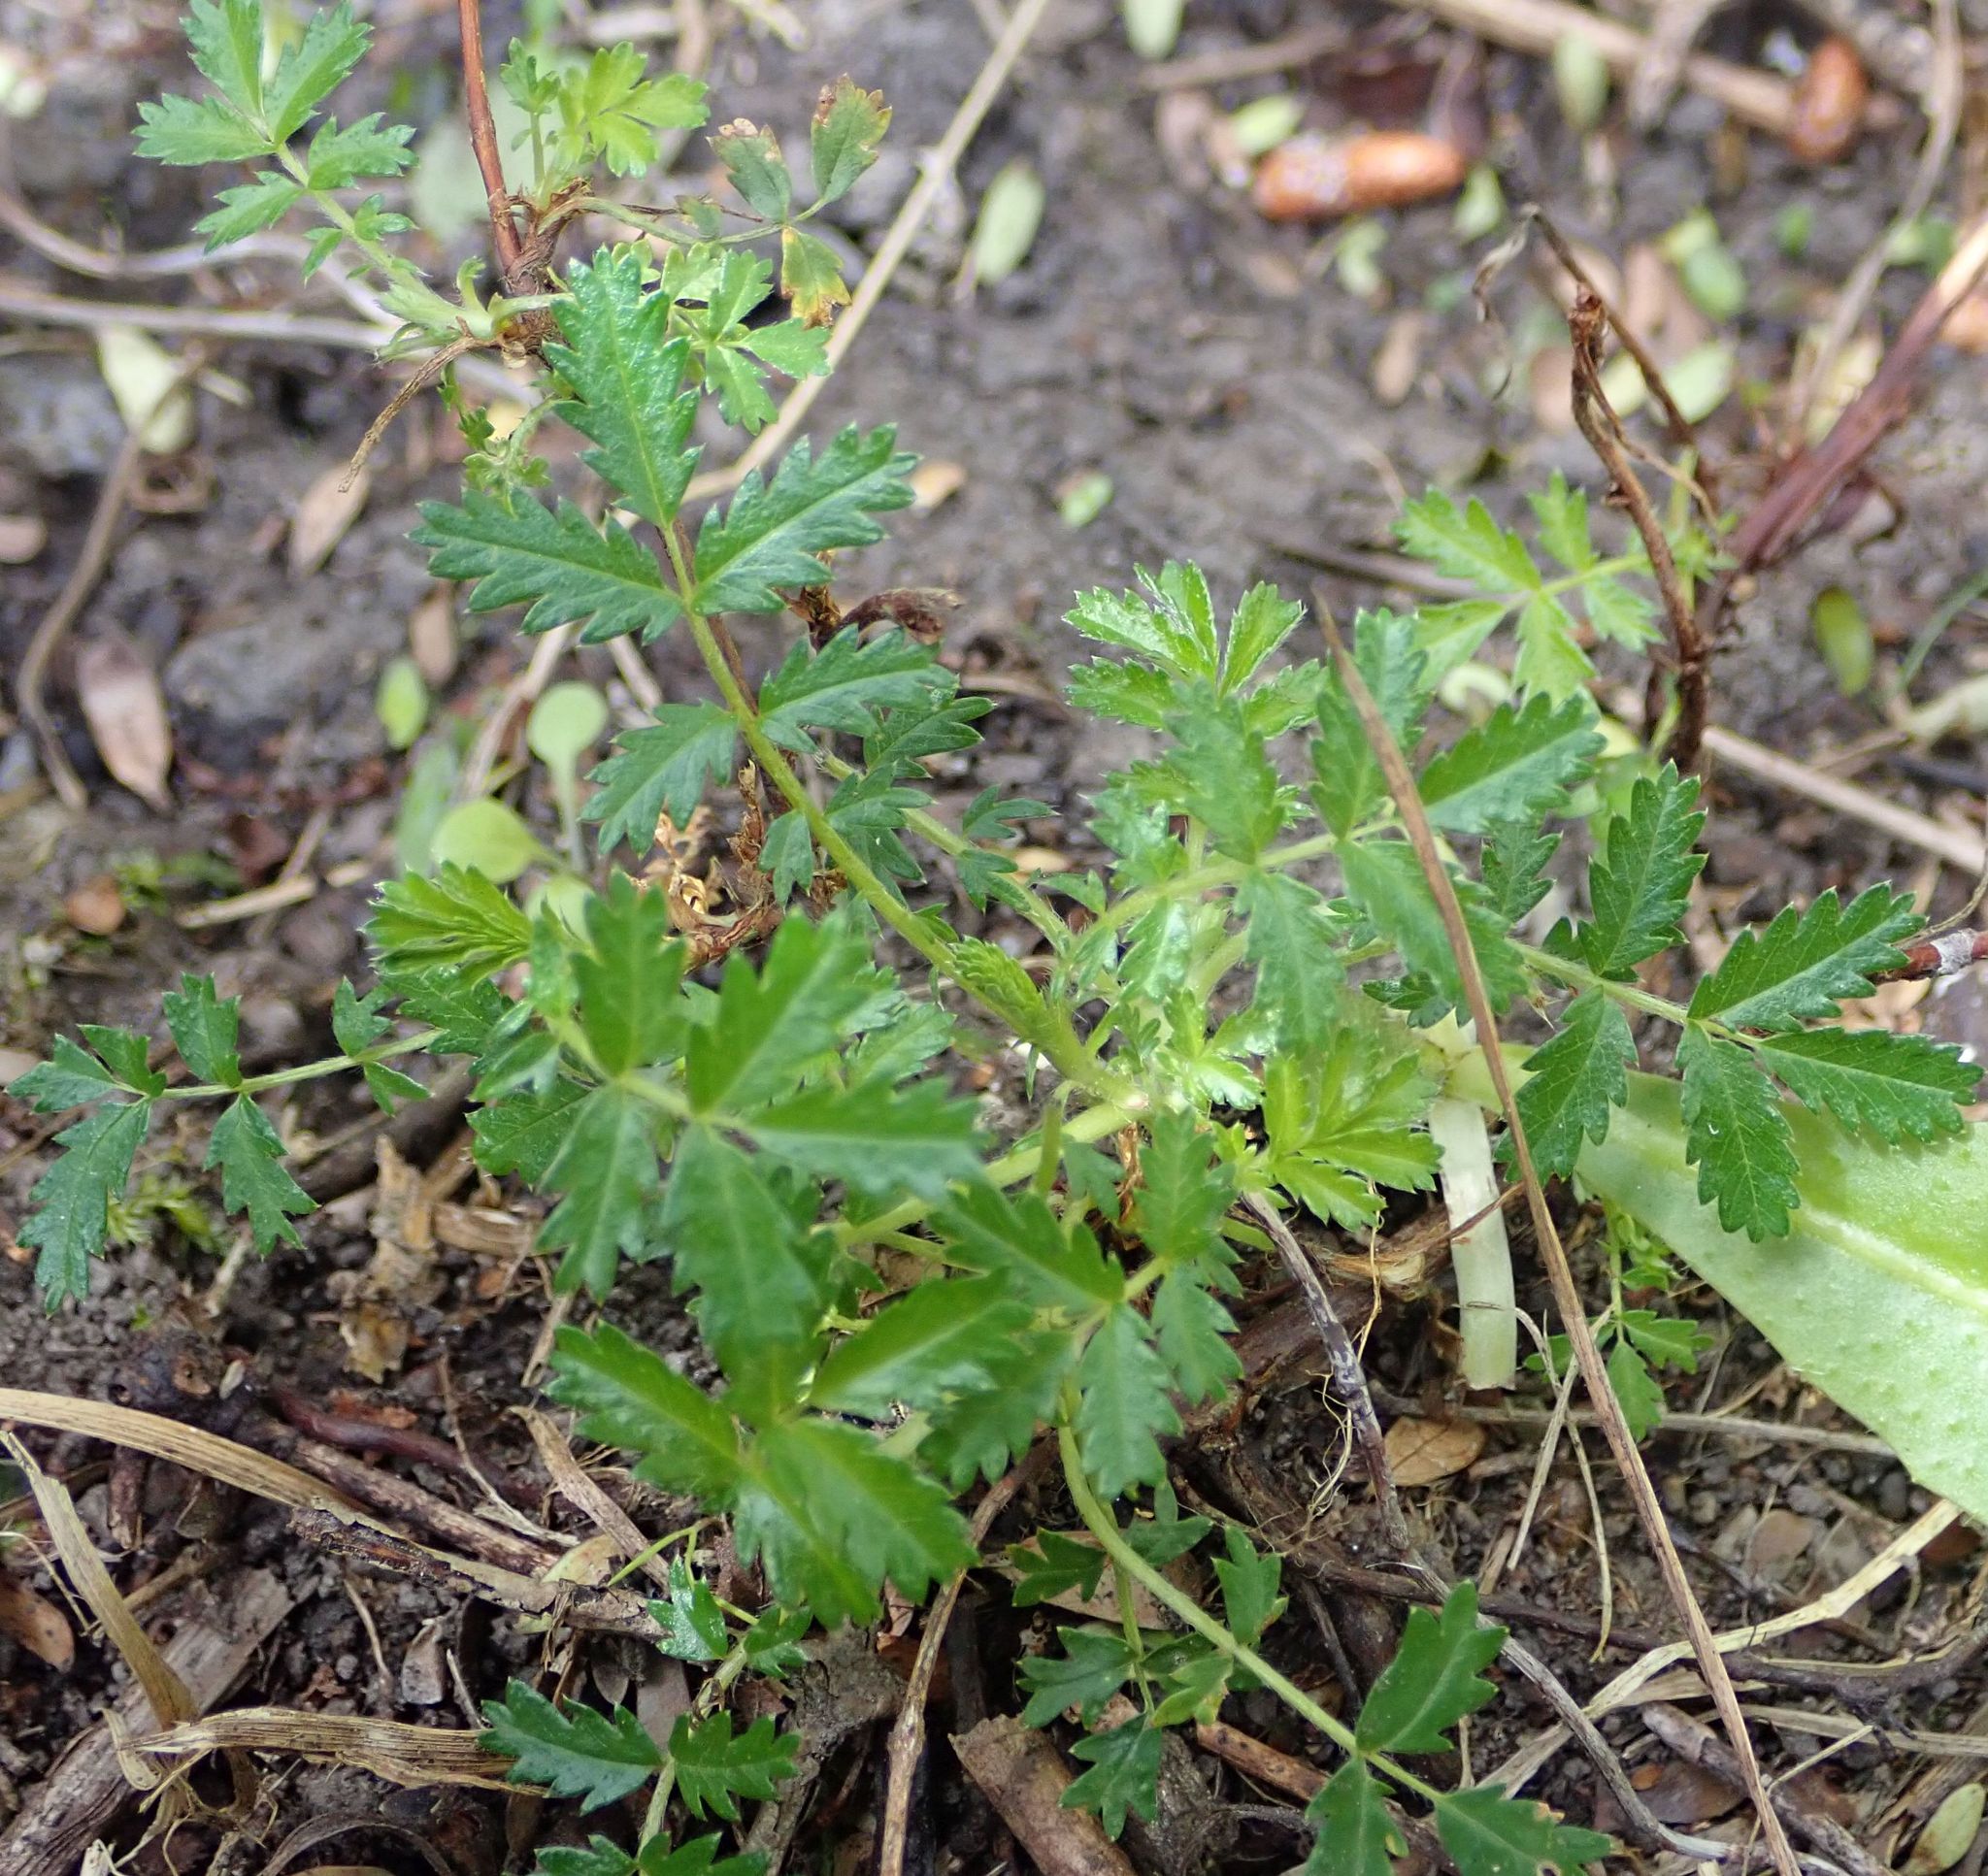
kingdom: Plantae
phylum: Tracheophyta
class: Magnoliopsida
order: Rosales
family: Rosaceae
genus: Acaena
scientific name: Acaena anserinifolia
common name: Bronze pirri-pirri-bur
